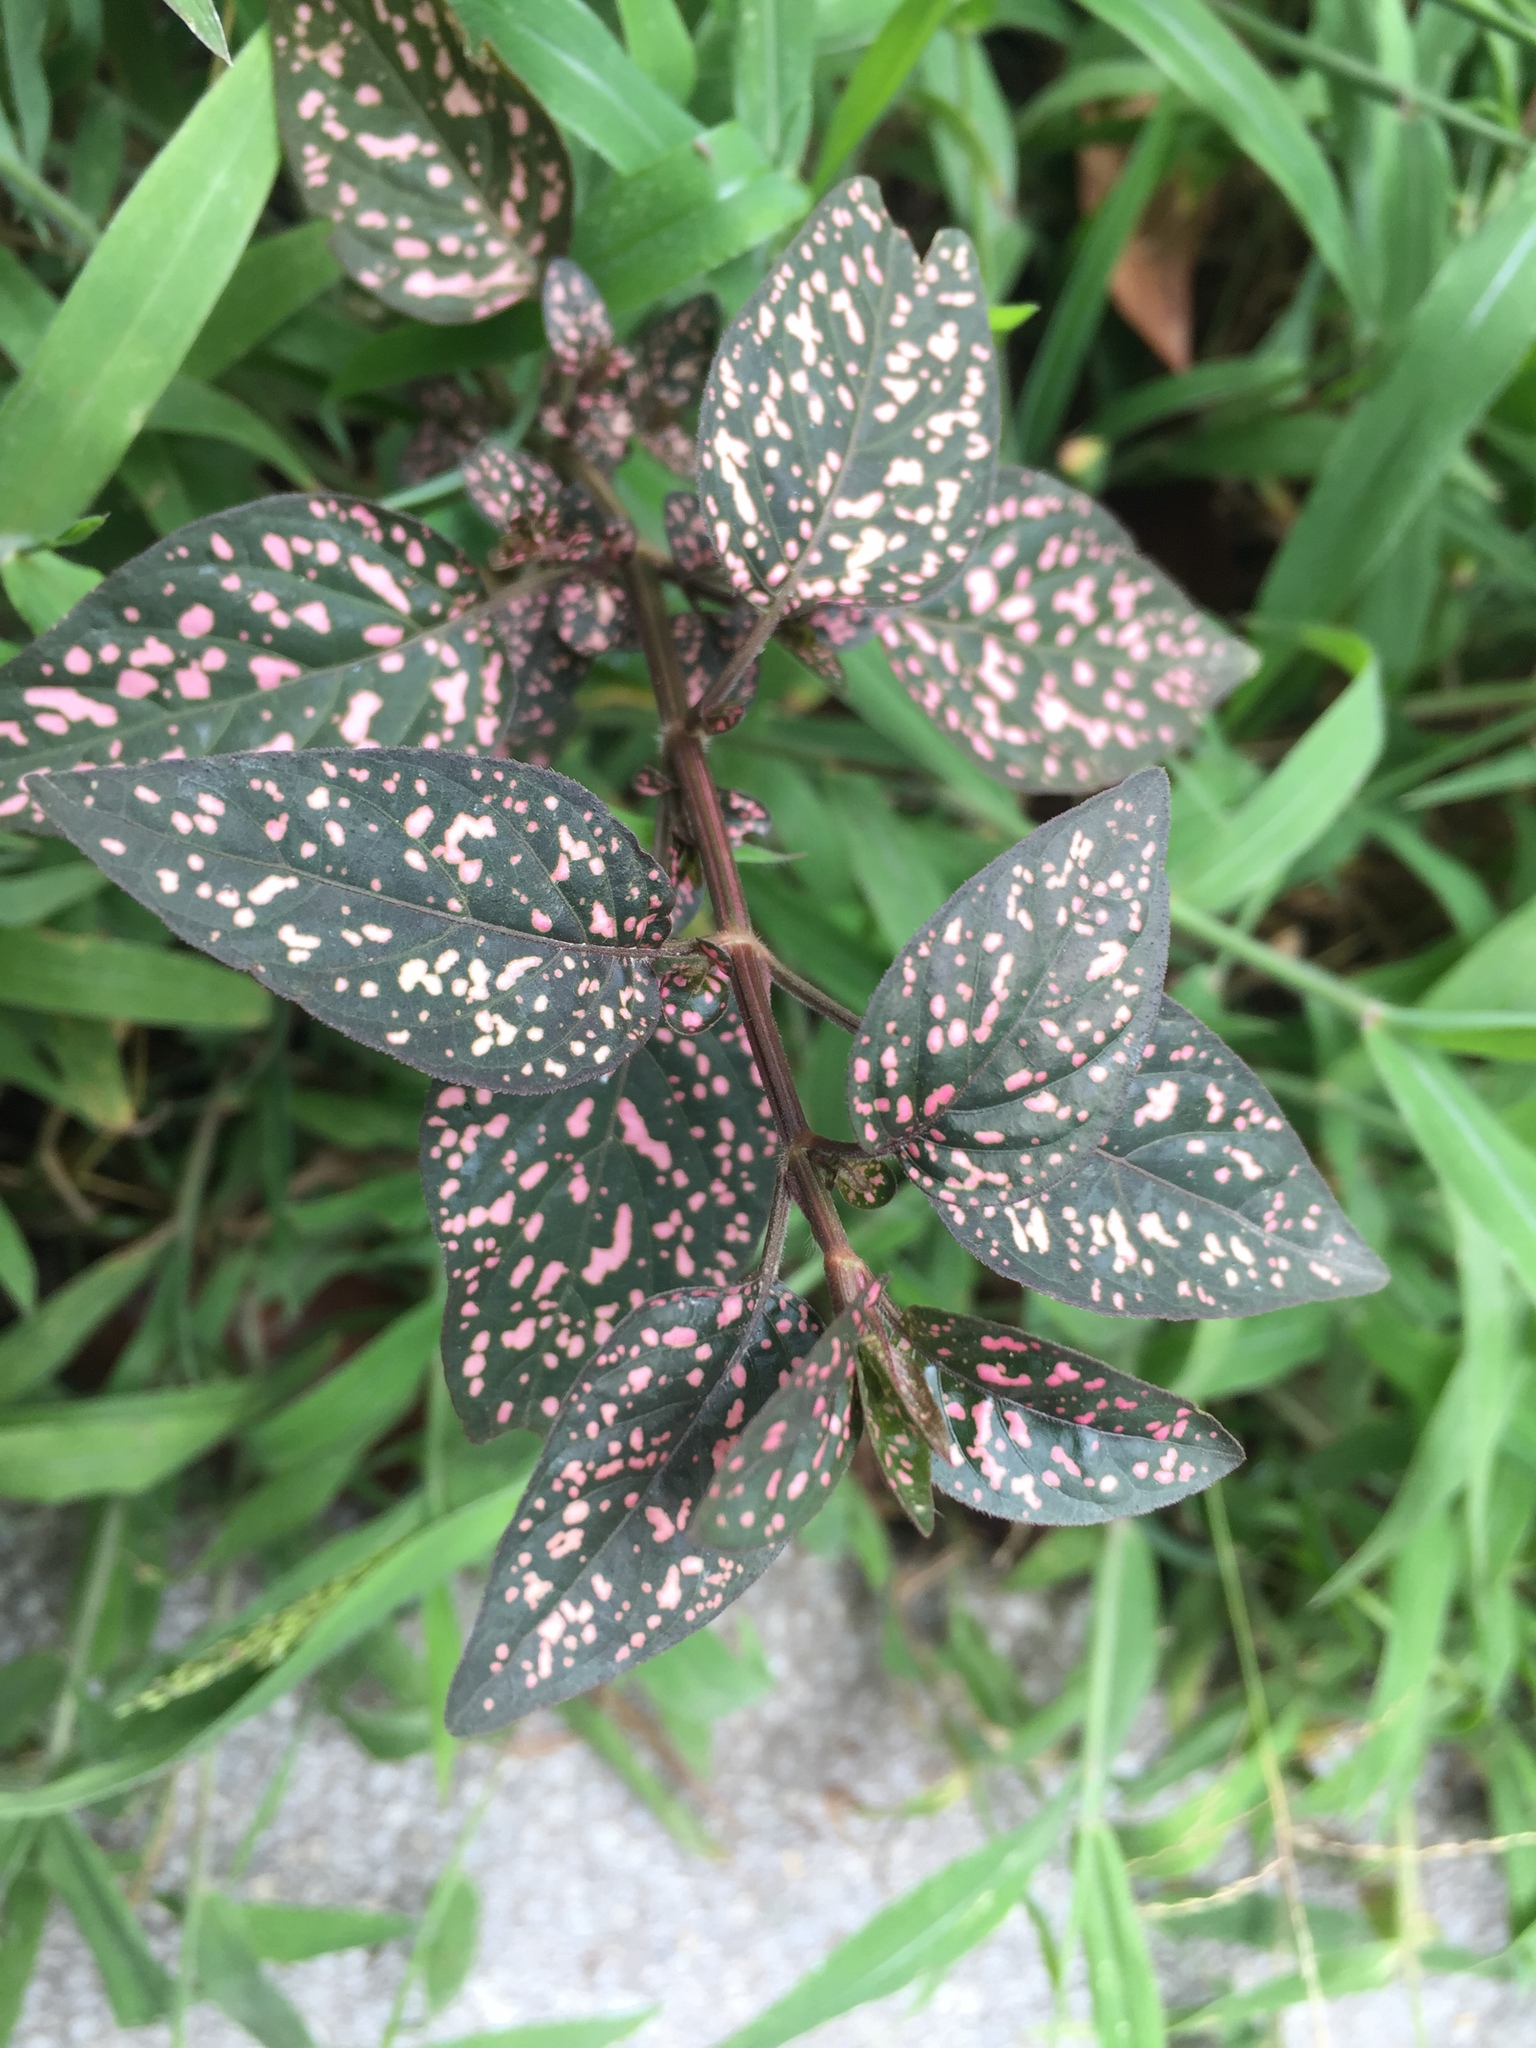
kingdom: Plantae
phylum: Tracheophyta
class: Magnoliopsida
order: Lamiales
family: Acanthaceae
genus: Hypoestes
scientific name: Hypoestes phyllostachya
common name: Polkadot-plant
